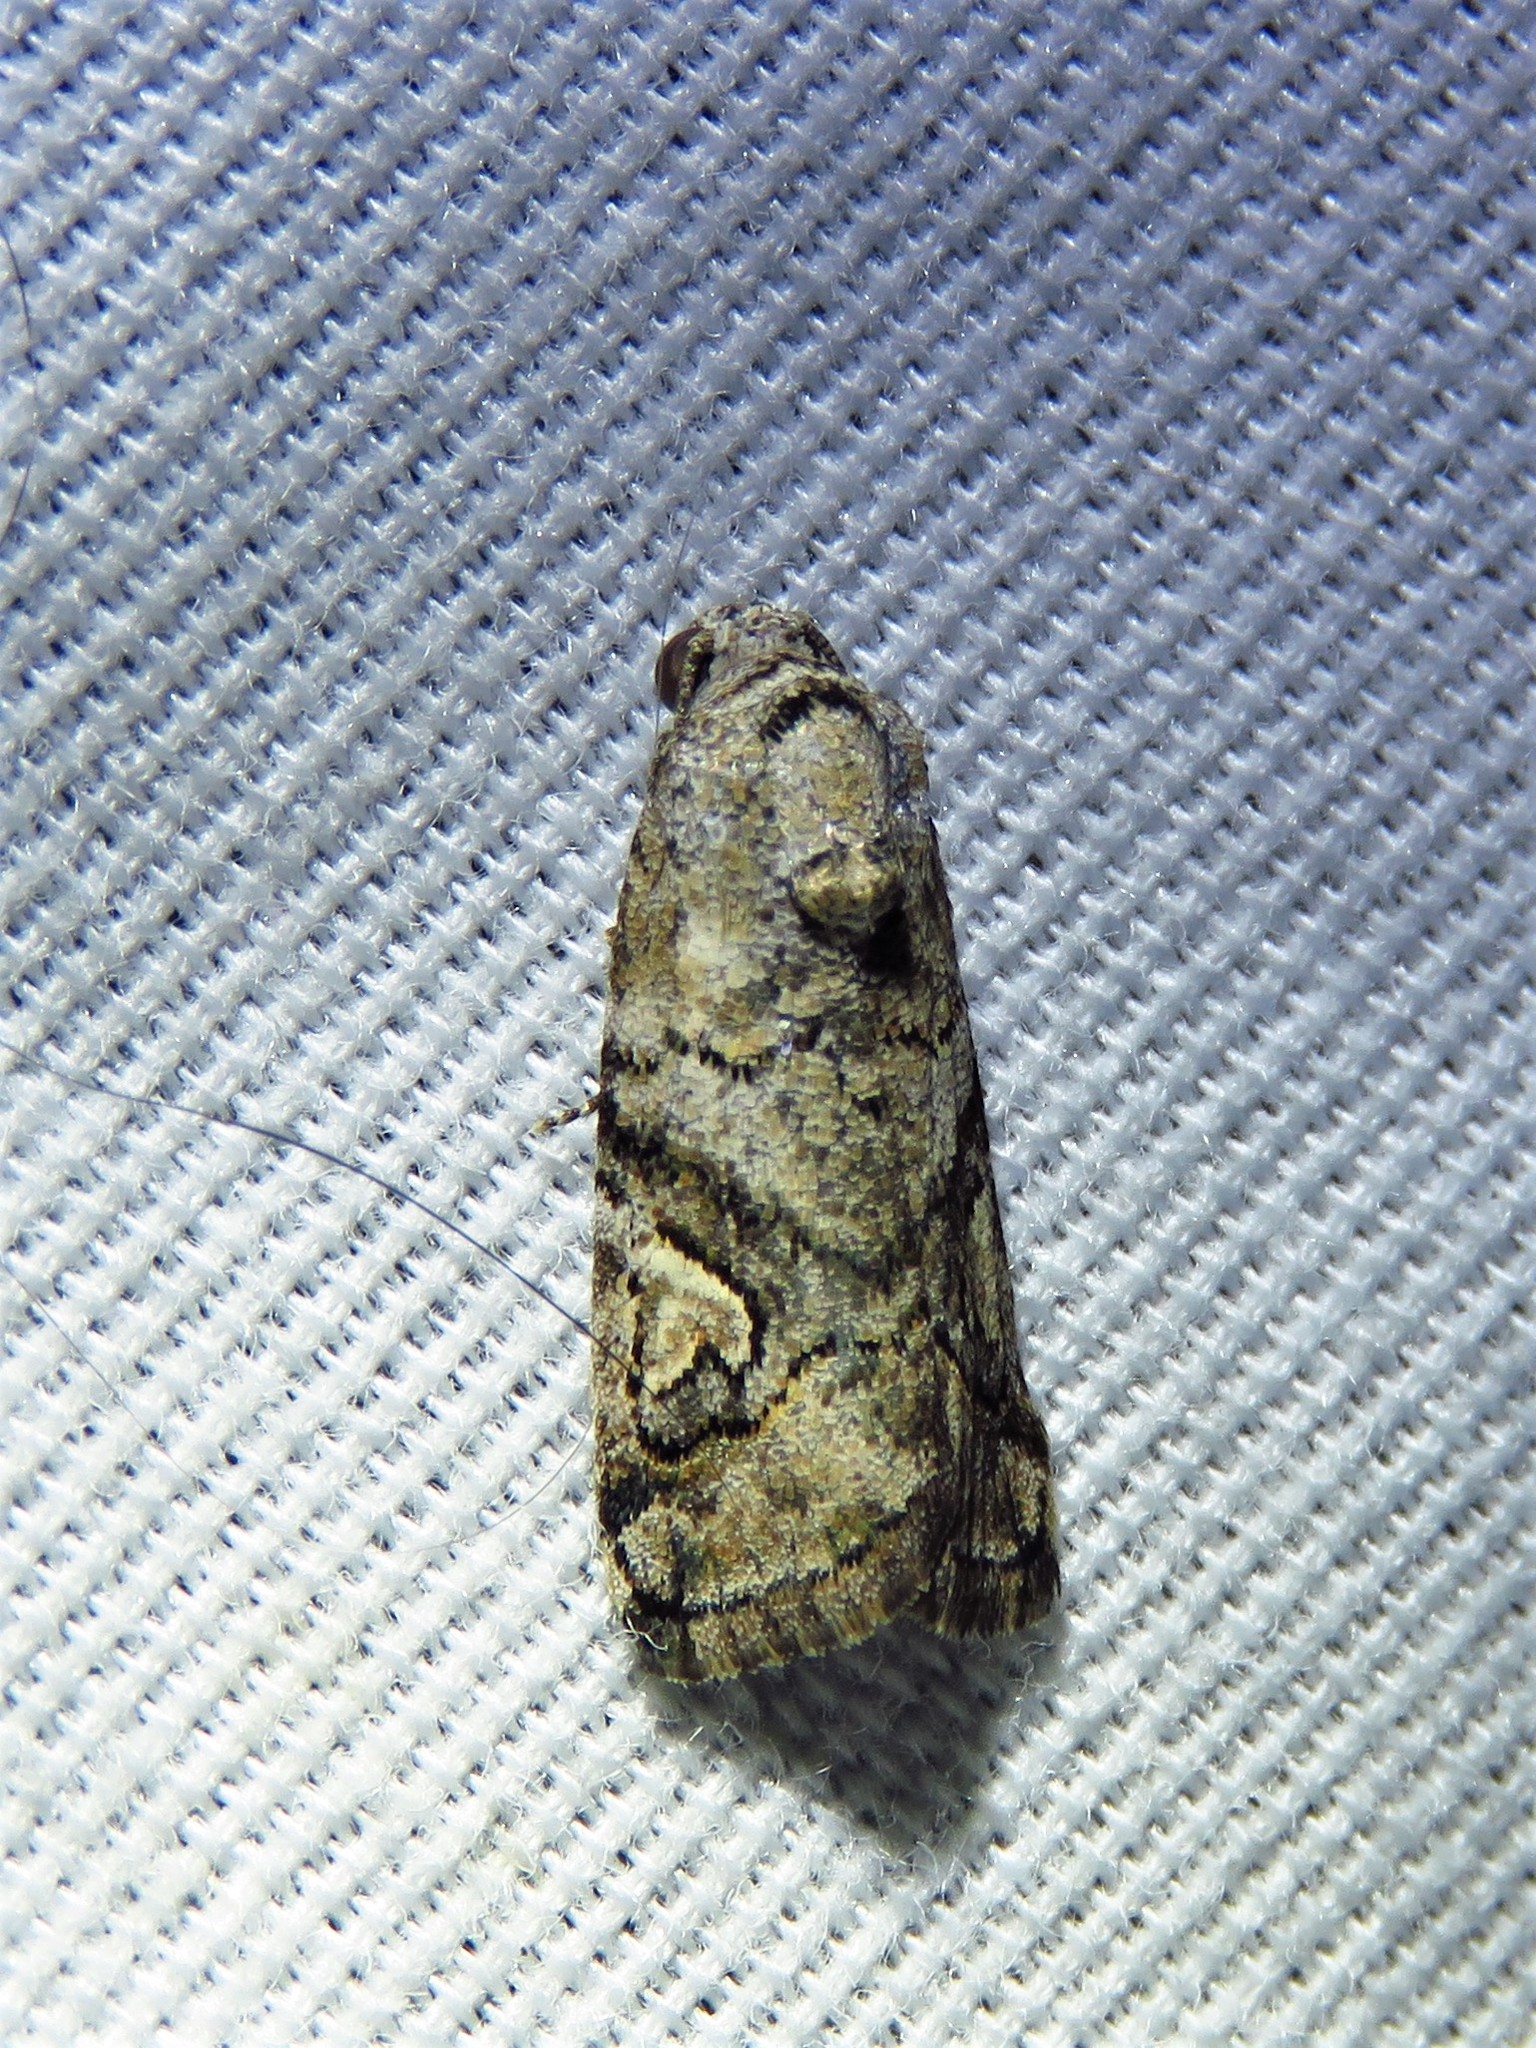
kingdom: Animalia
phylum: Arthropoda
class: Insecta
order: Lepidoptera
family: Noctuidae
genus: Metaponpneumata
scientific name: Metaponpneumata rogenhoferi
